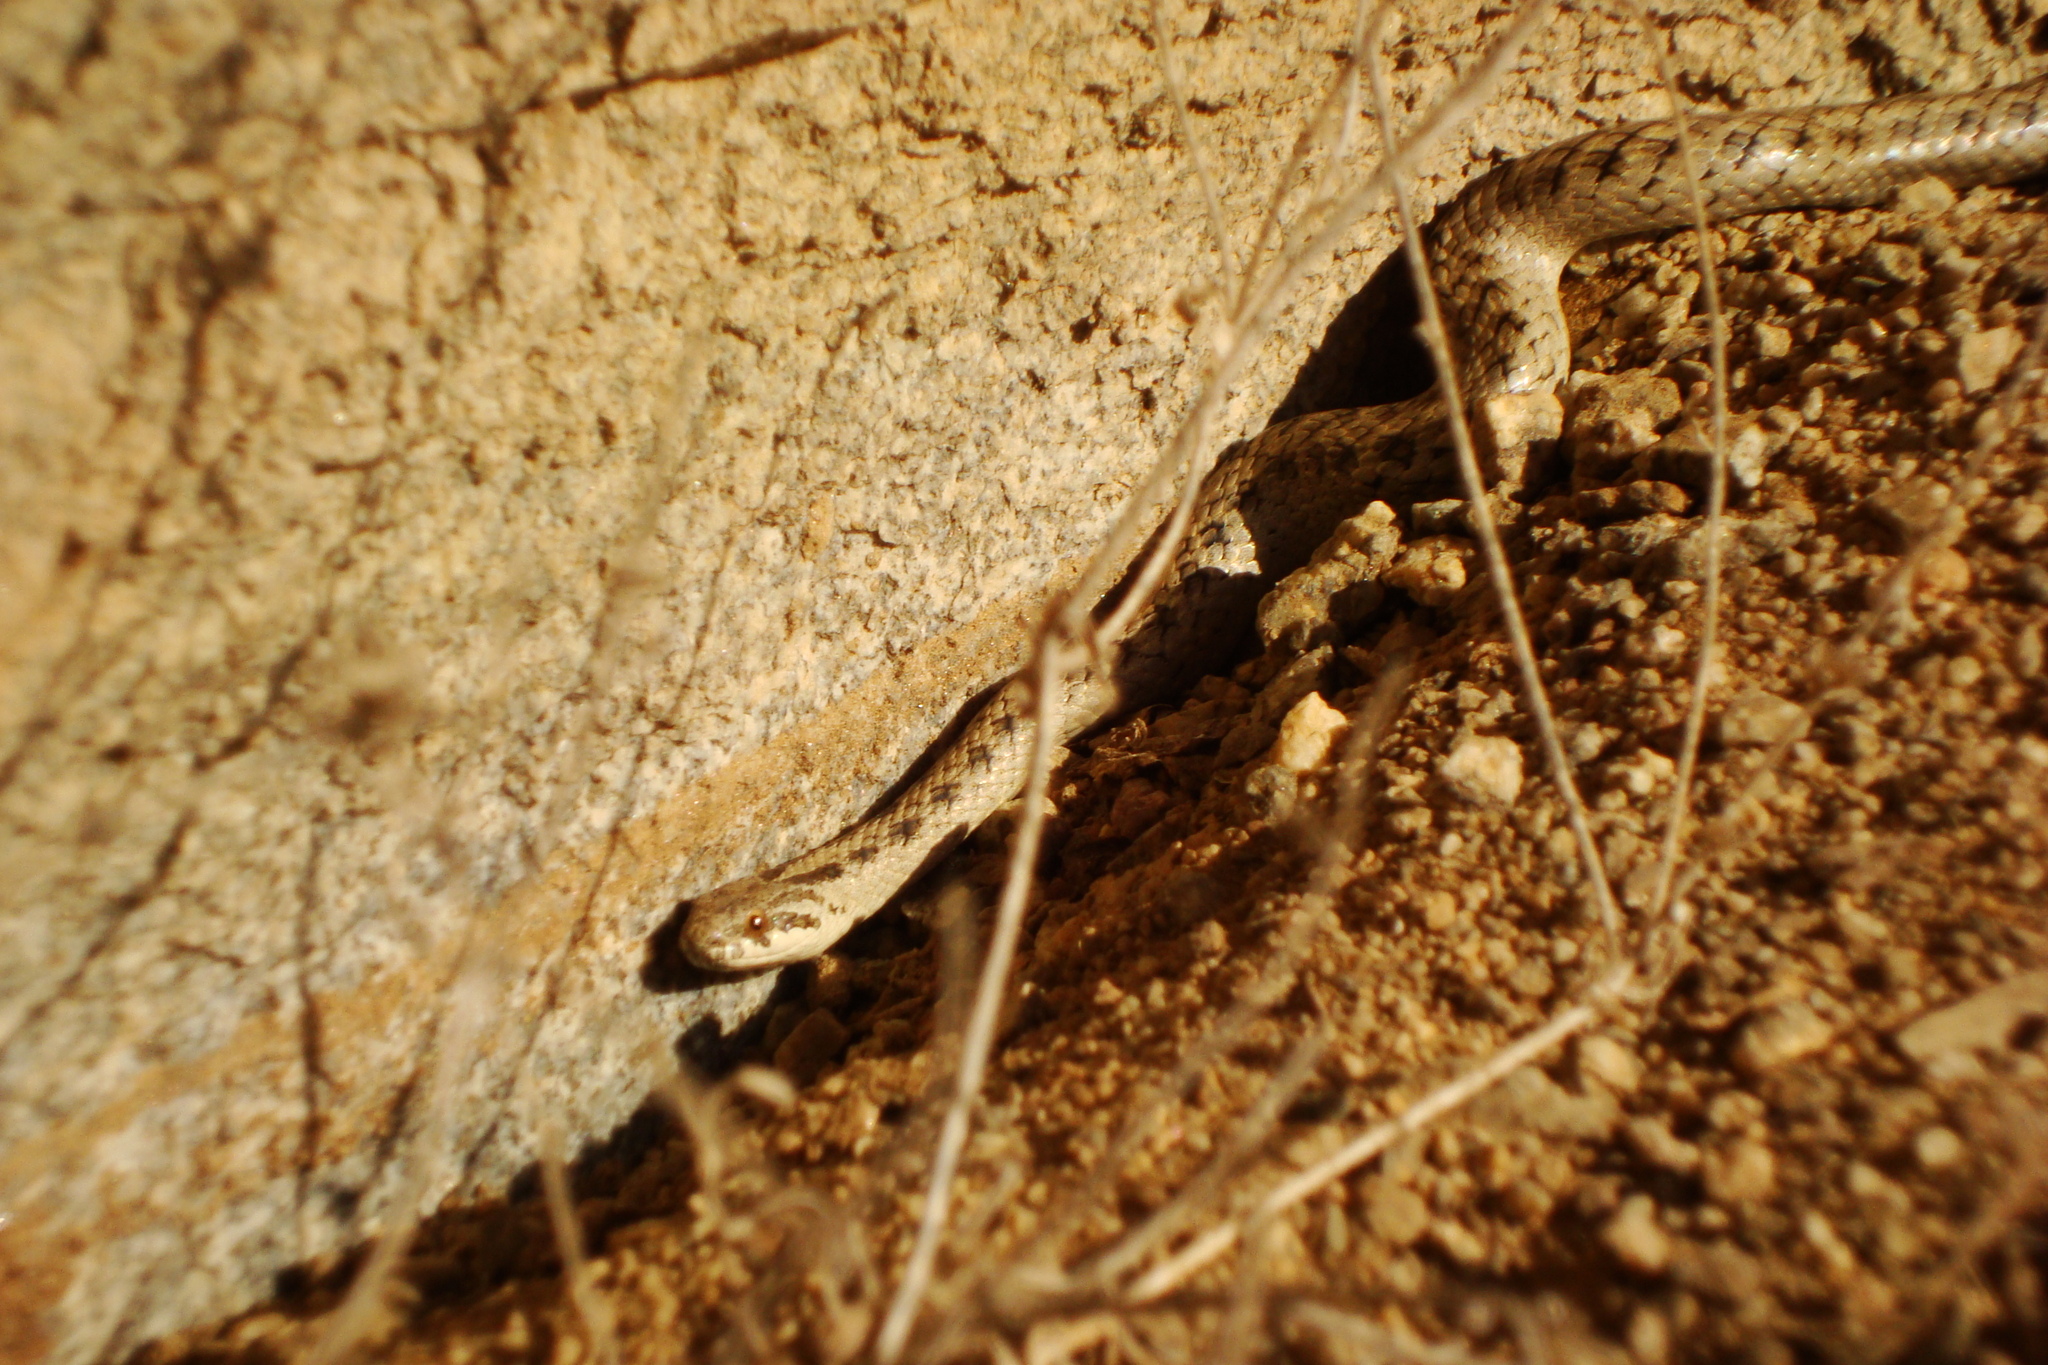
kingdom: Animalia
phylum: Chordata
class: Squamata
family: Colubridae
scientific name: Colubridae
